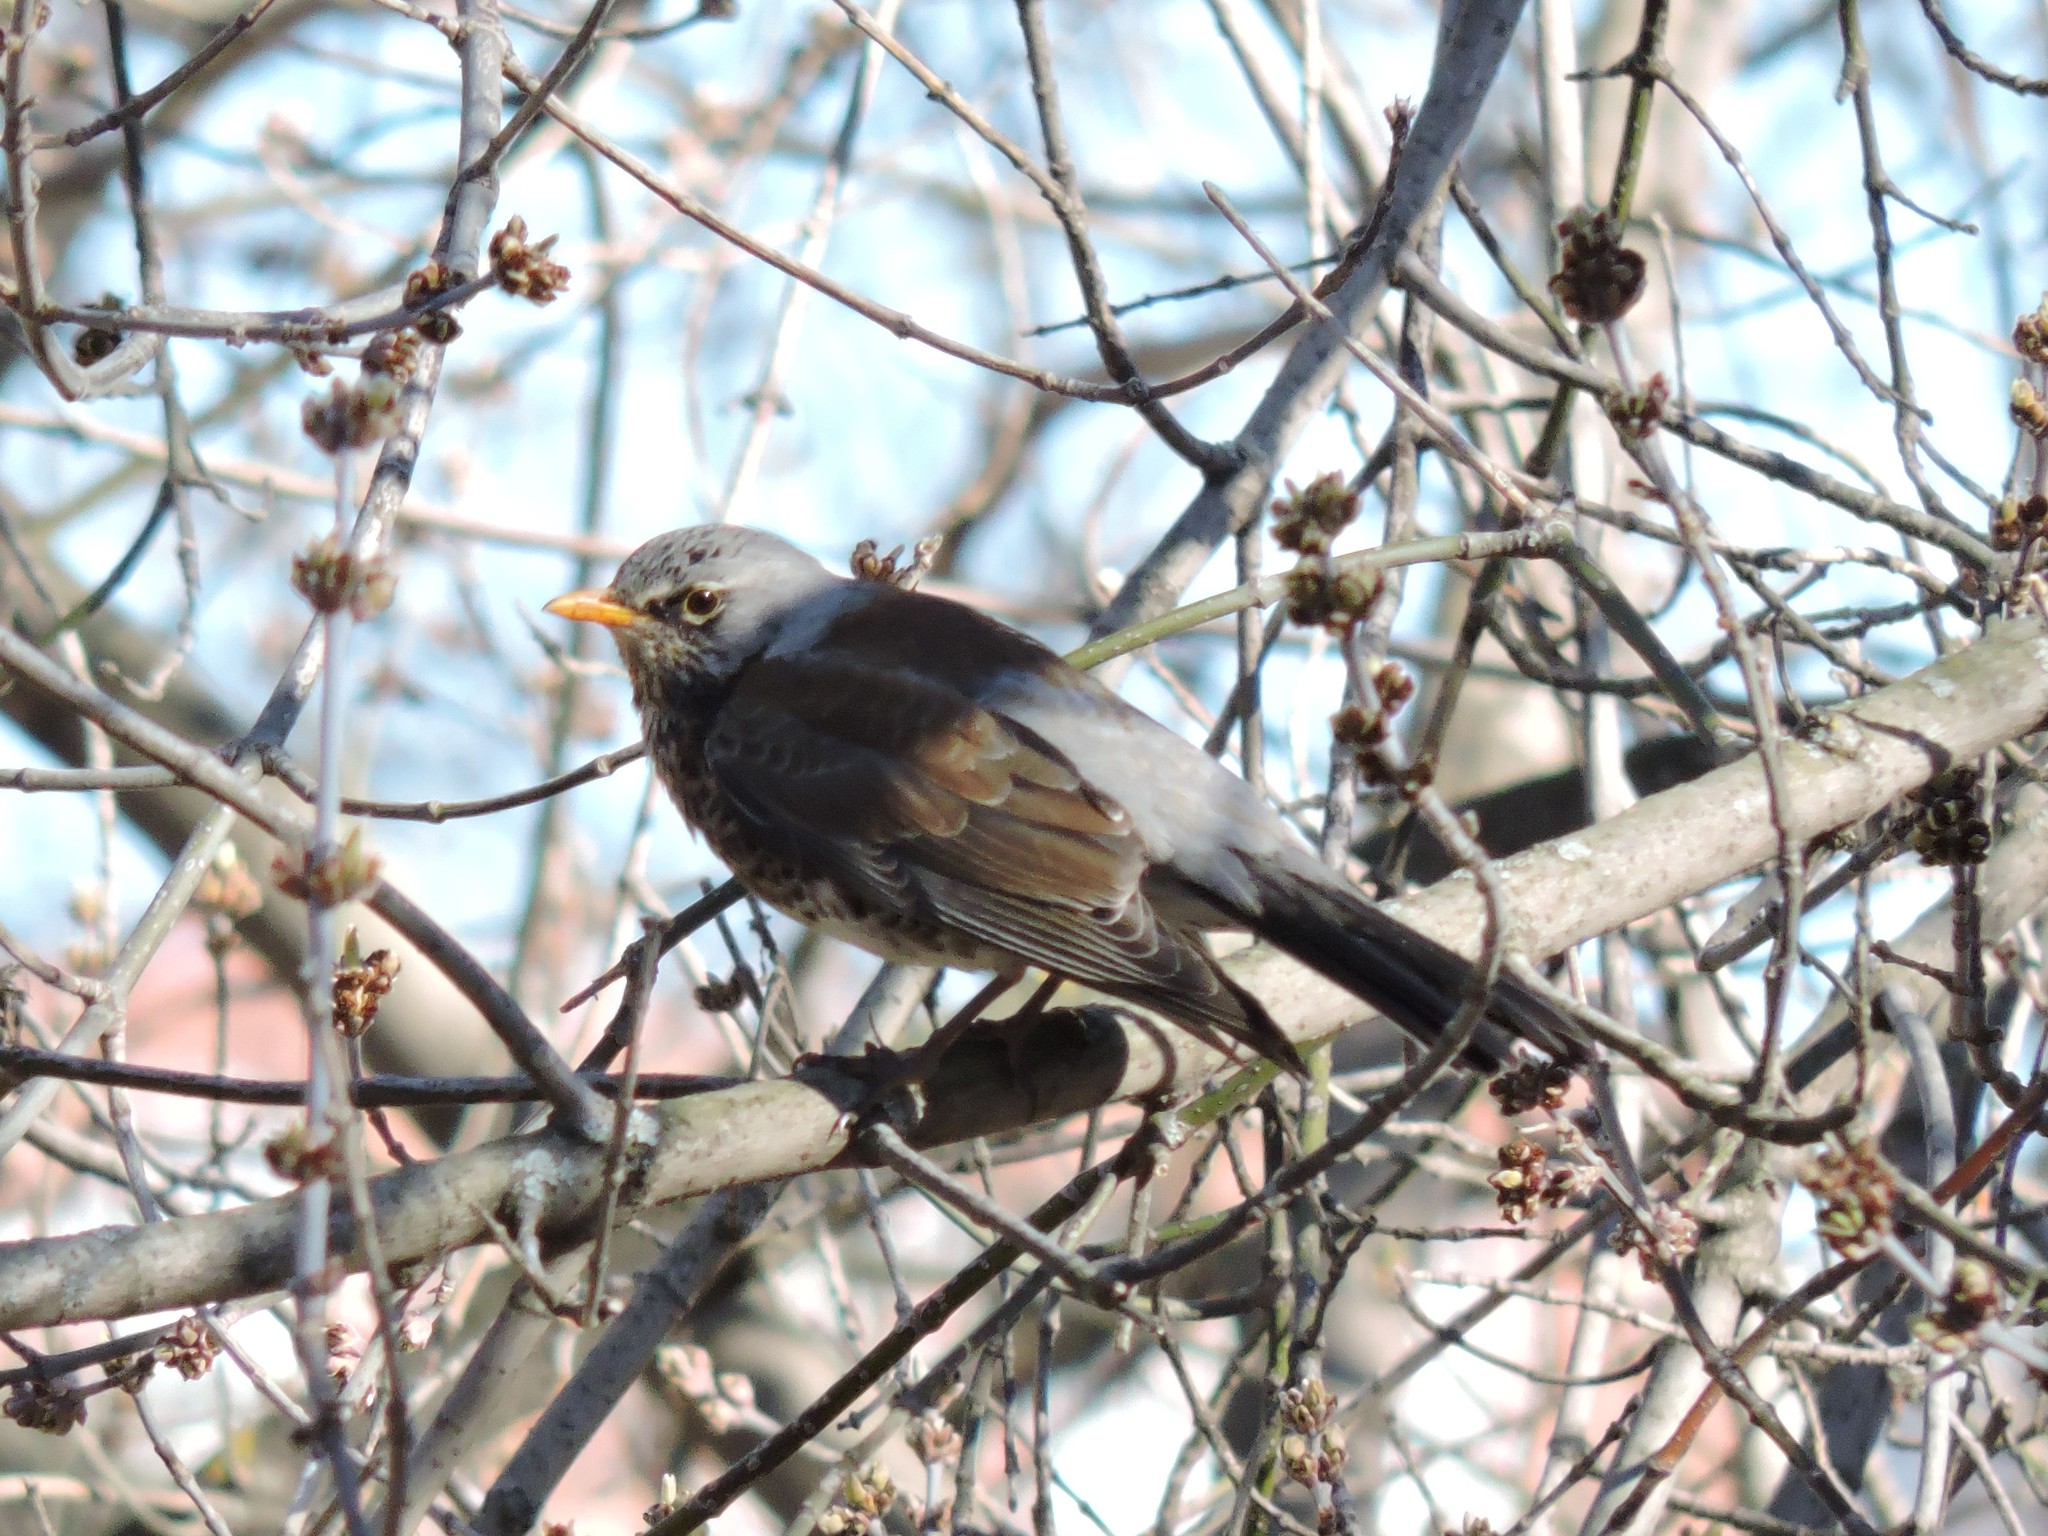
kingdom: Animalia
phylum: Chordata
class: Aves
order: Passeriformes
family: Turdidae
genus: Turdus
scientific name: Turdus pilaris
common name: Fieldfare
